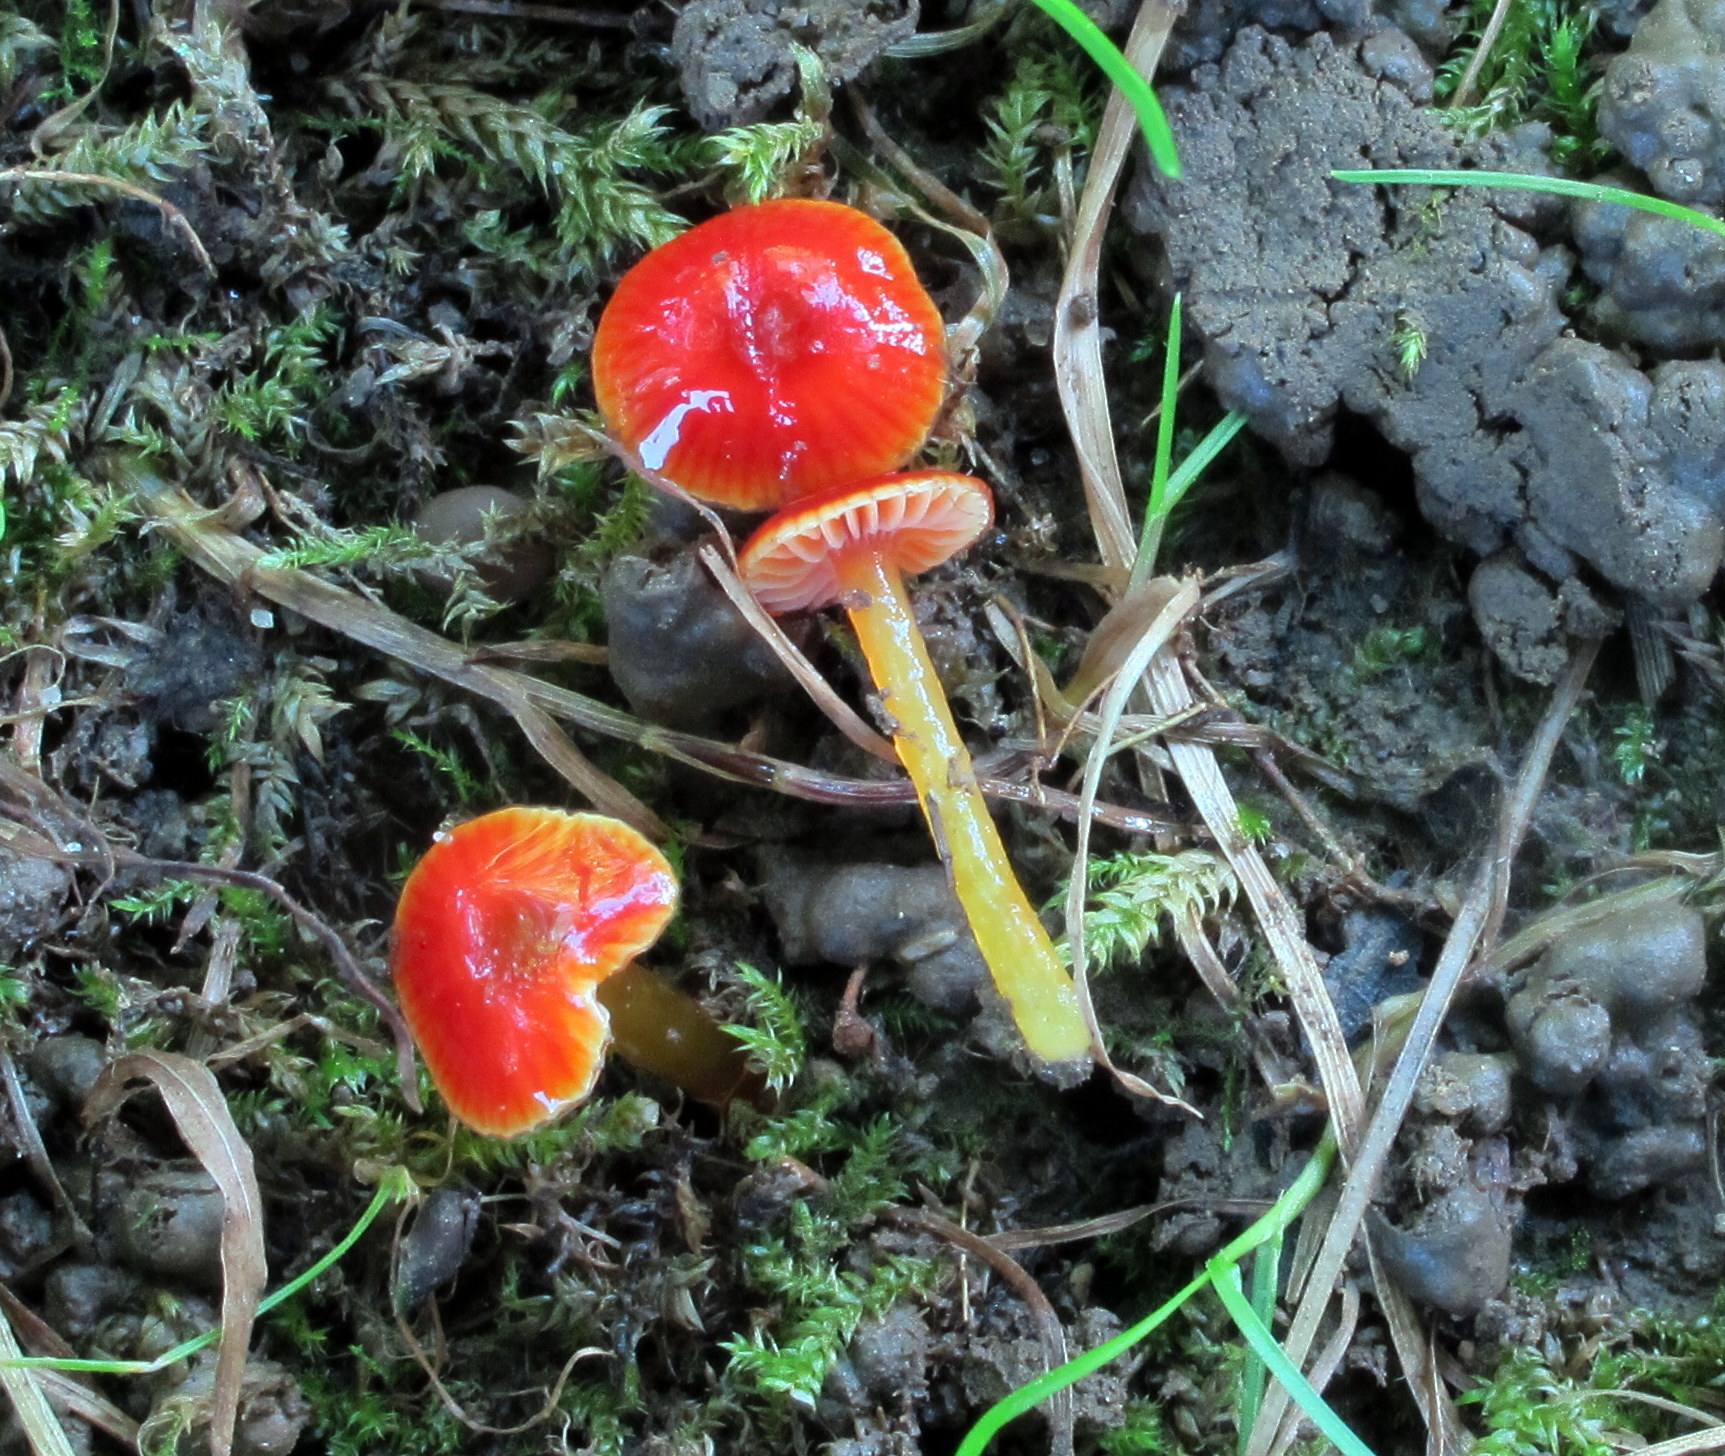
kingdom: Fungi
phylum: Basidiomycota
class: Agaricomycetes
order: Agaricales
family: Hygrophoraceae
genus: Hygrocybe
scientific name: Hygrocybe minutula
